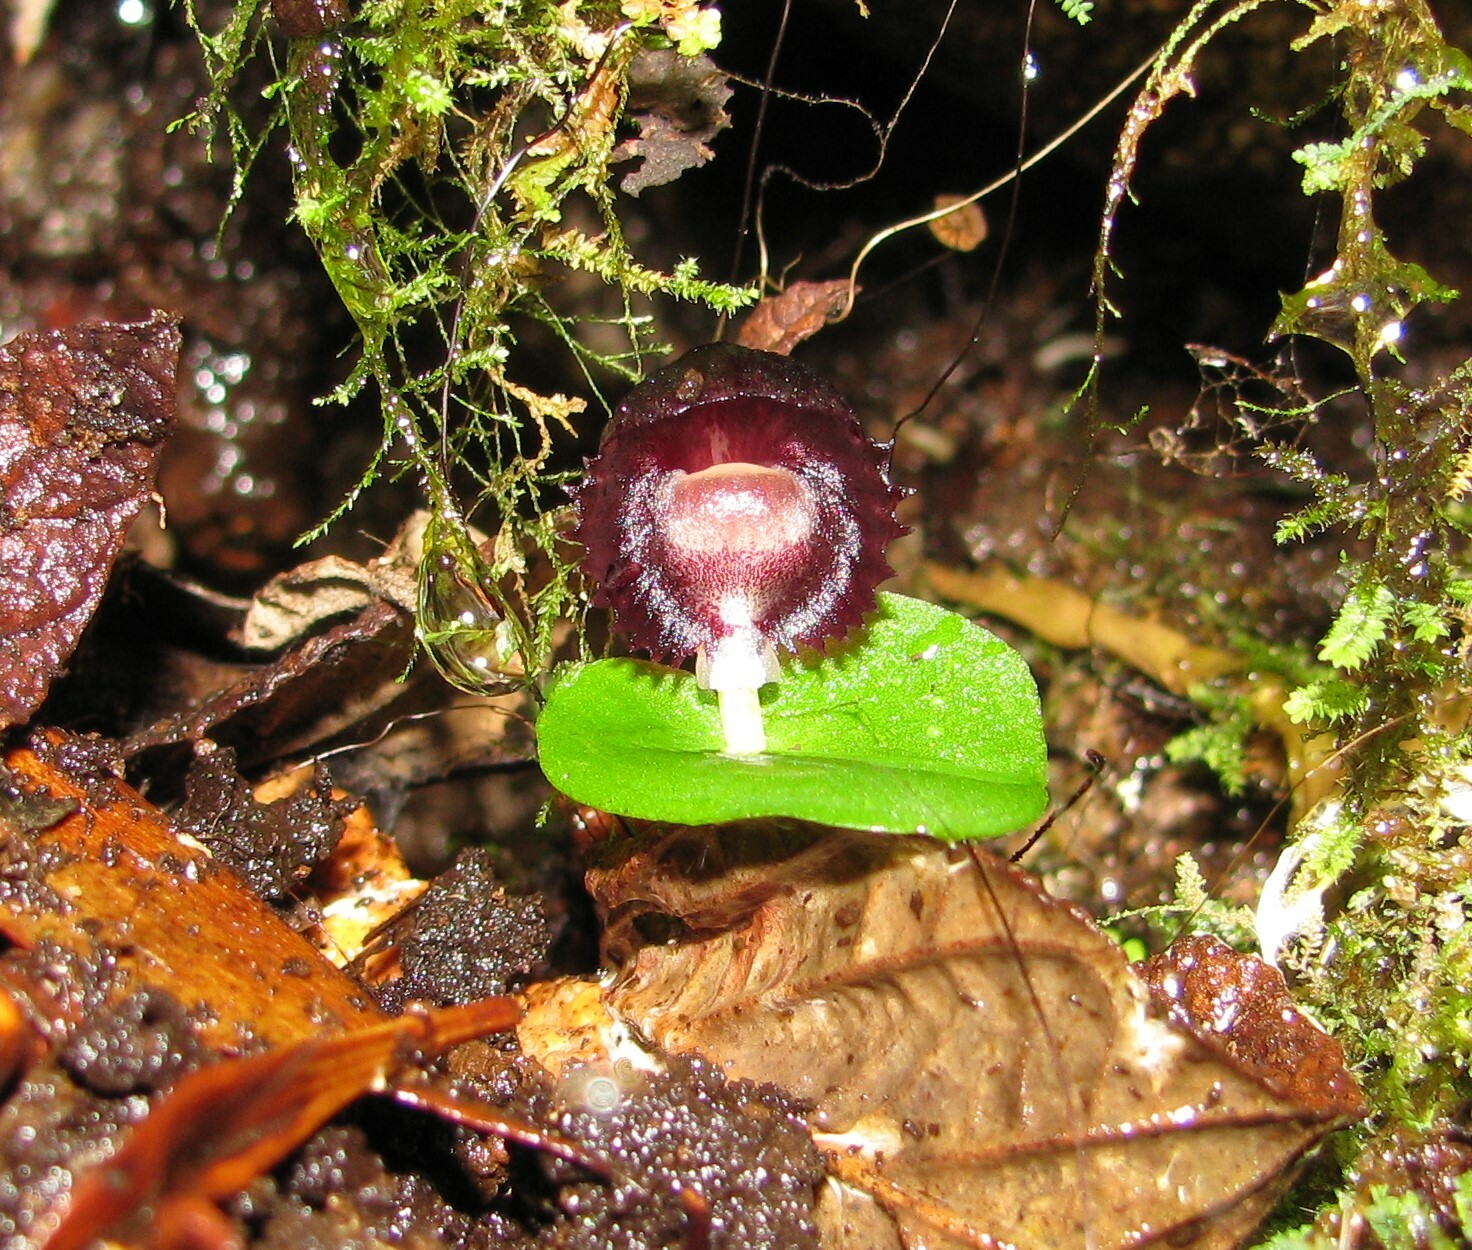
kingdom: Plantae
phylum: Tracheophyta
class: Liliopsida
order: Asparagales
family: Orchidaceae
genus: Corybas
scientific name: Corybas diemenicus
